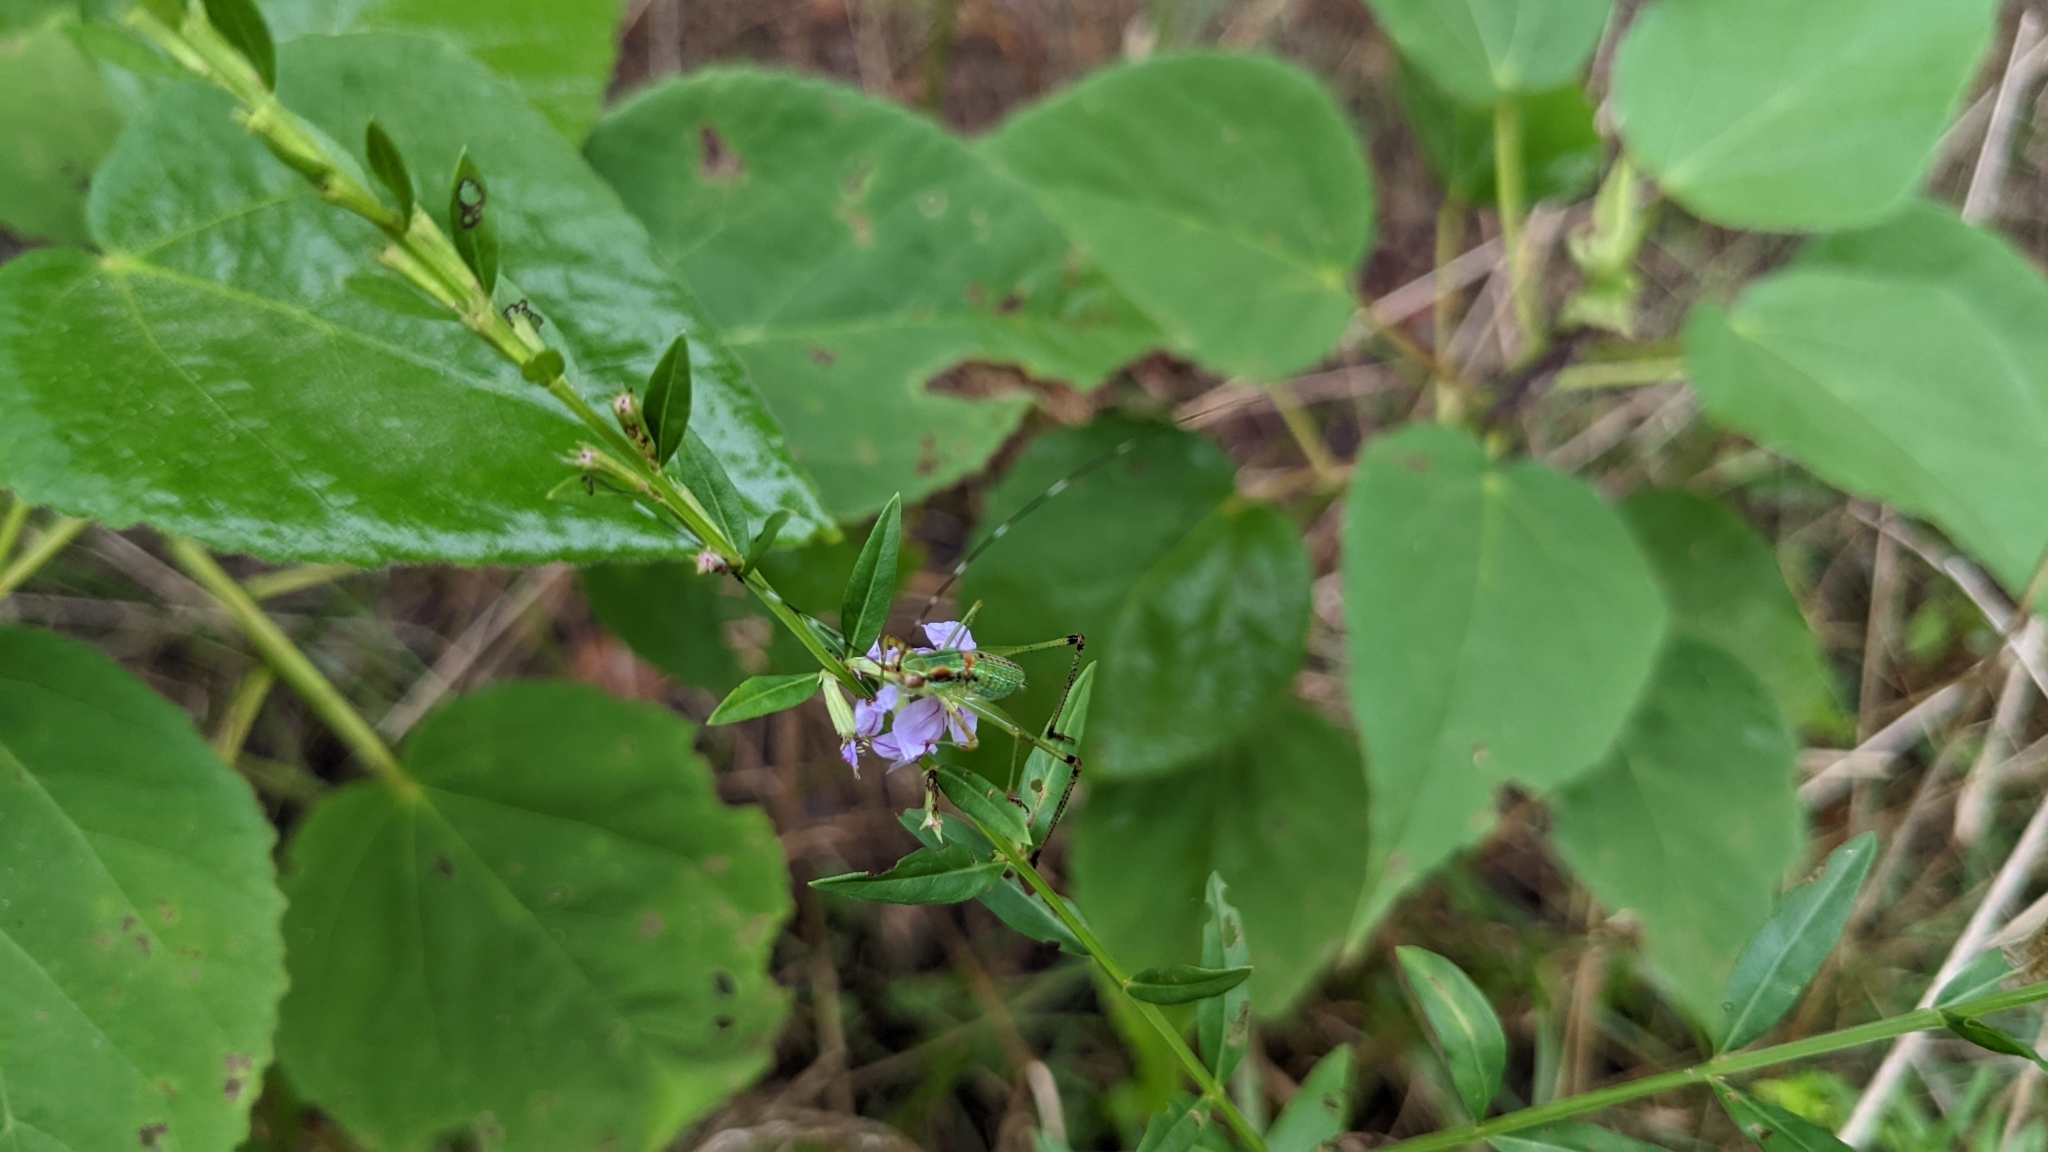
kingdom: Plantae
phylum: Tracheophyta
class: Magnoliopsida
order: Myrtales
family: Lythraceae
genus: Lythrum
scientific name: Lythrum alatum
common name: Winged loosestrife
